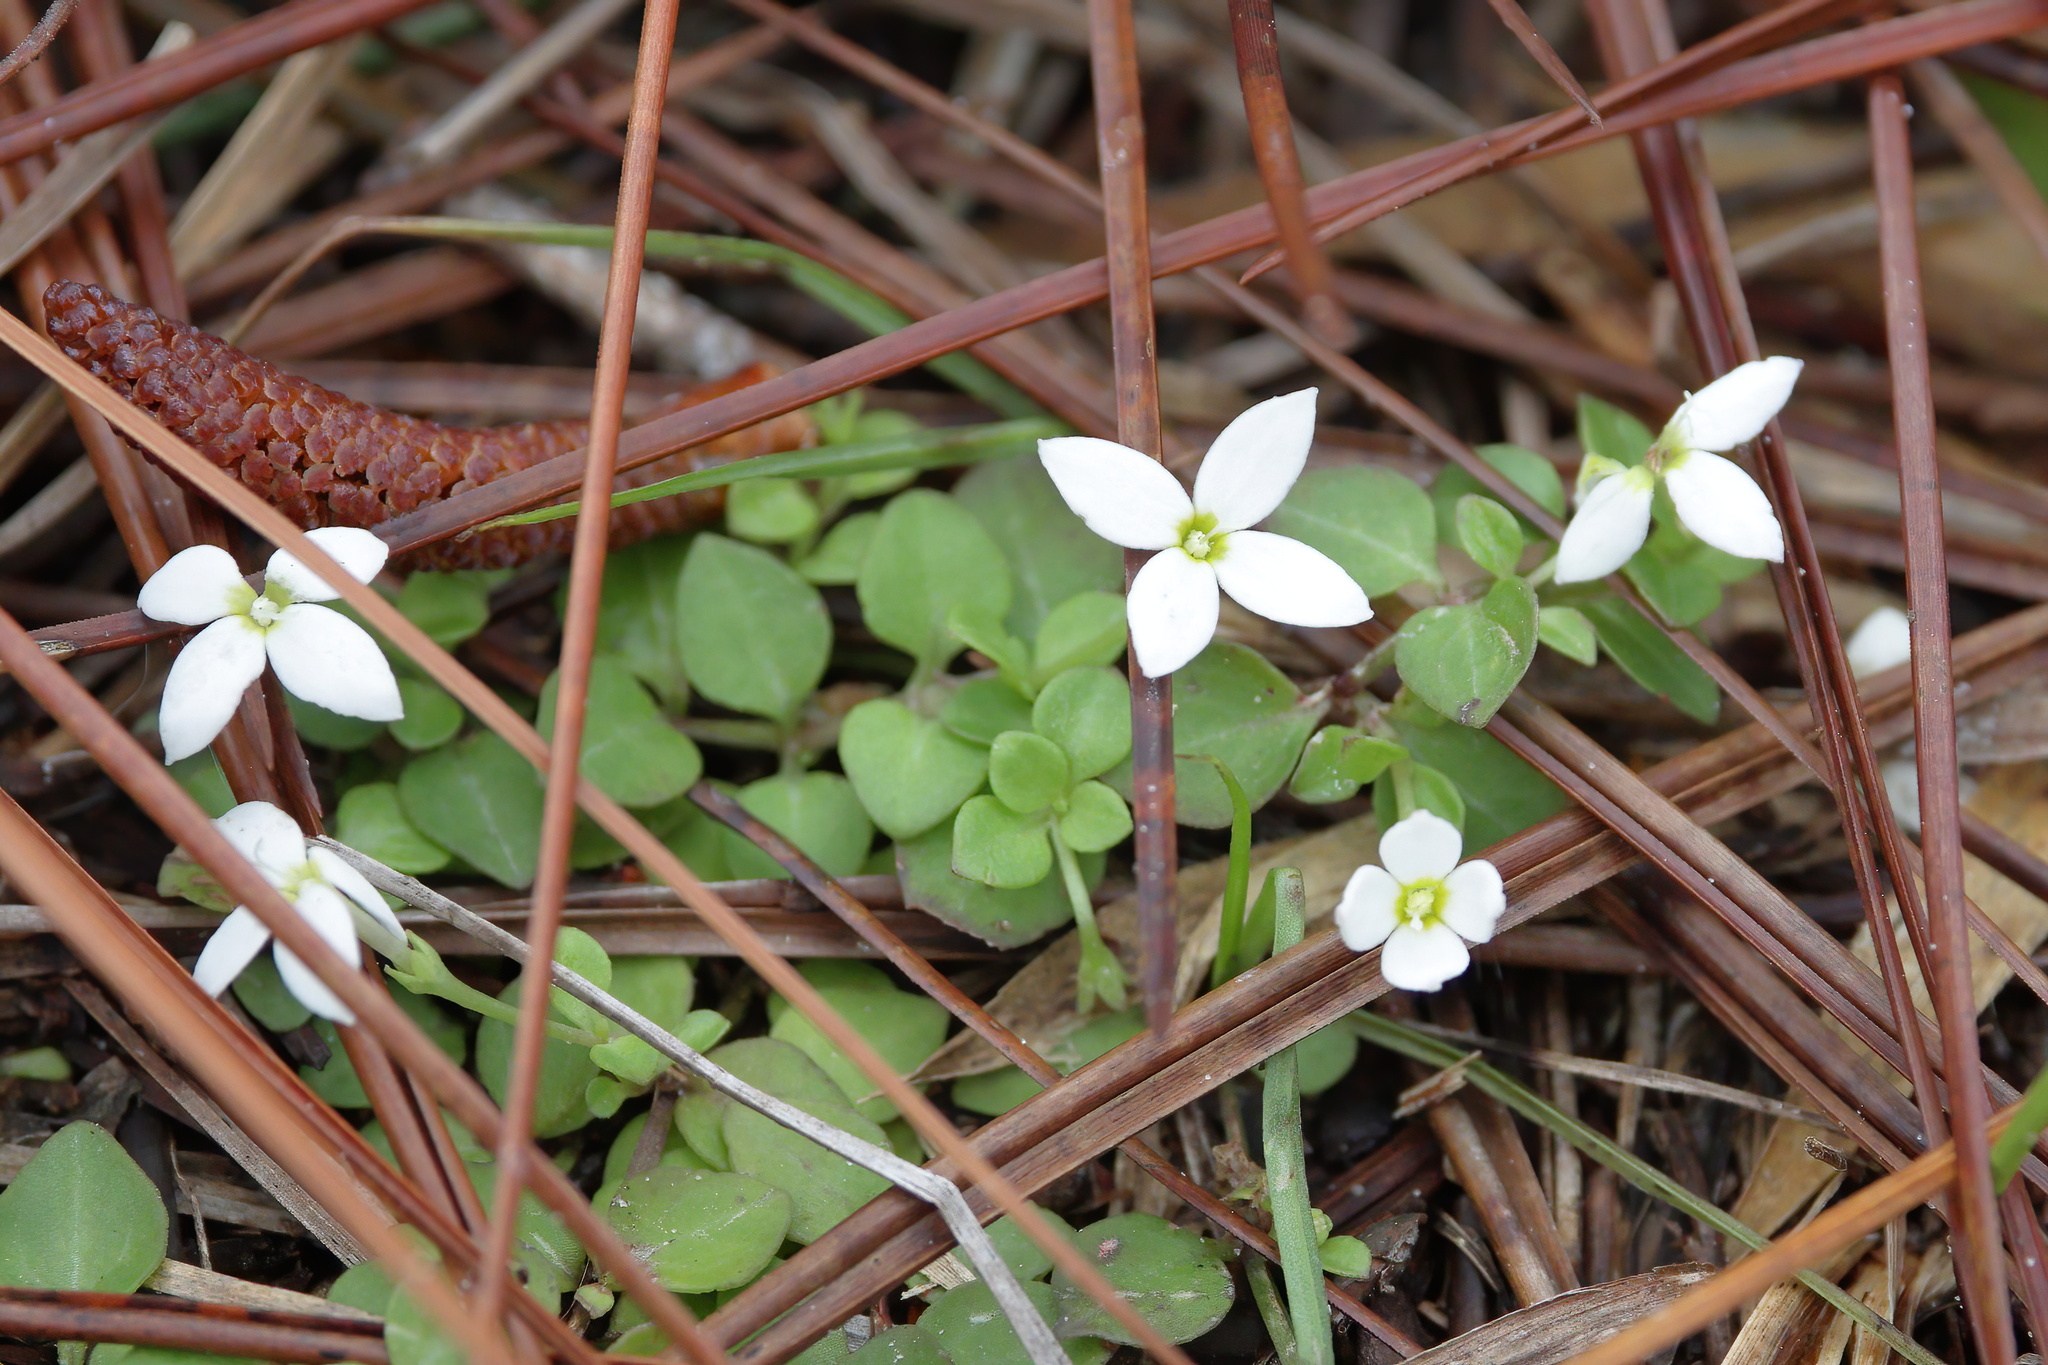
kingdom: Plantae
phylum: Tracheophyta
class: Magnoliopsida
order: Gentianales
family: Rubiaceae
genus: Houstonia
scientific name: Houstonia procumbens
